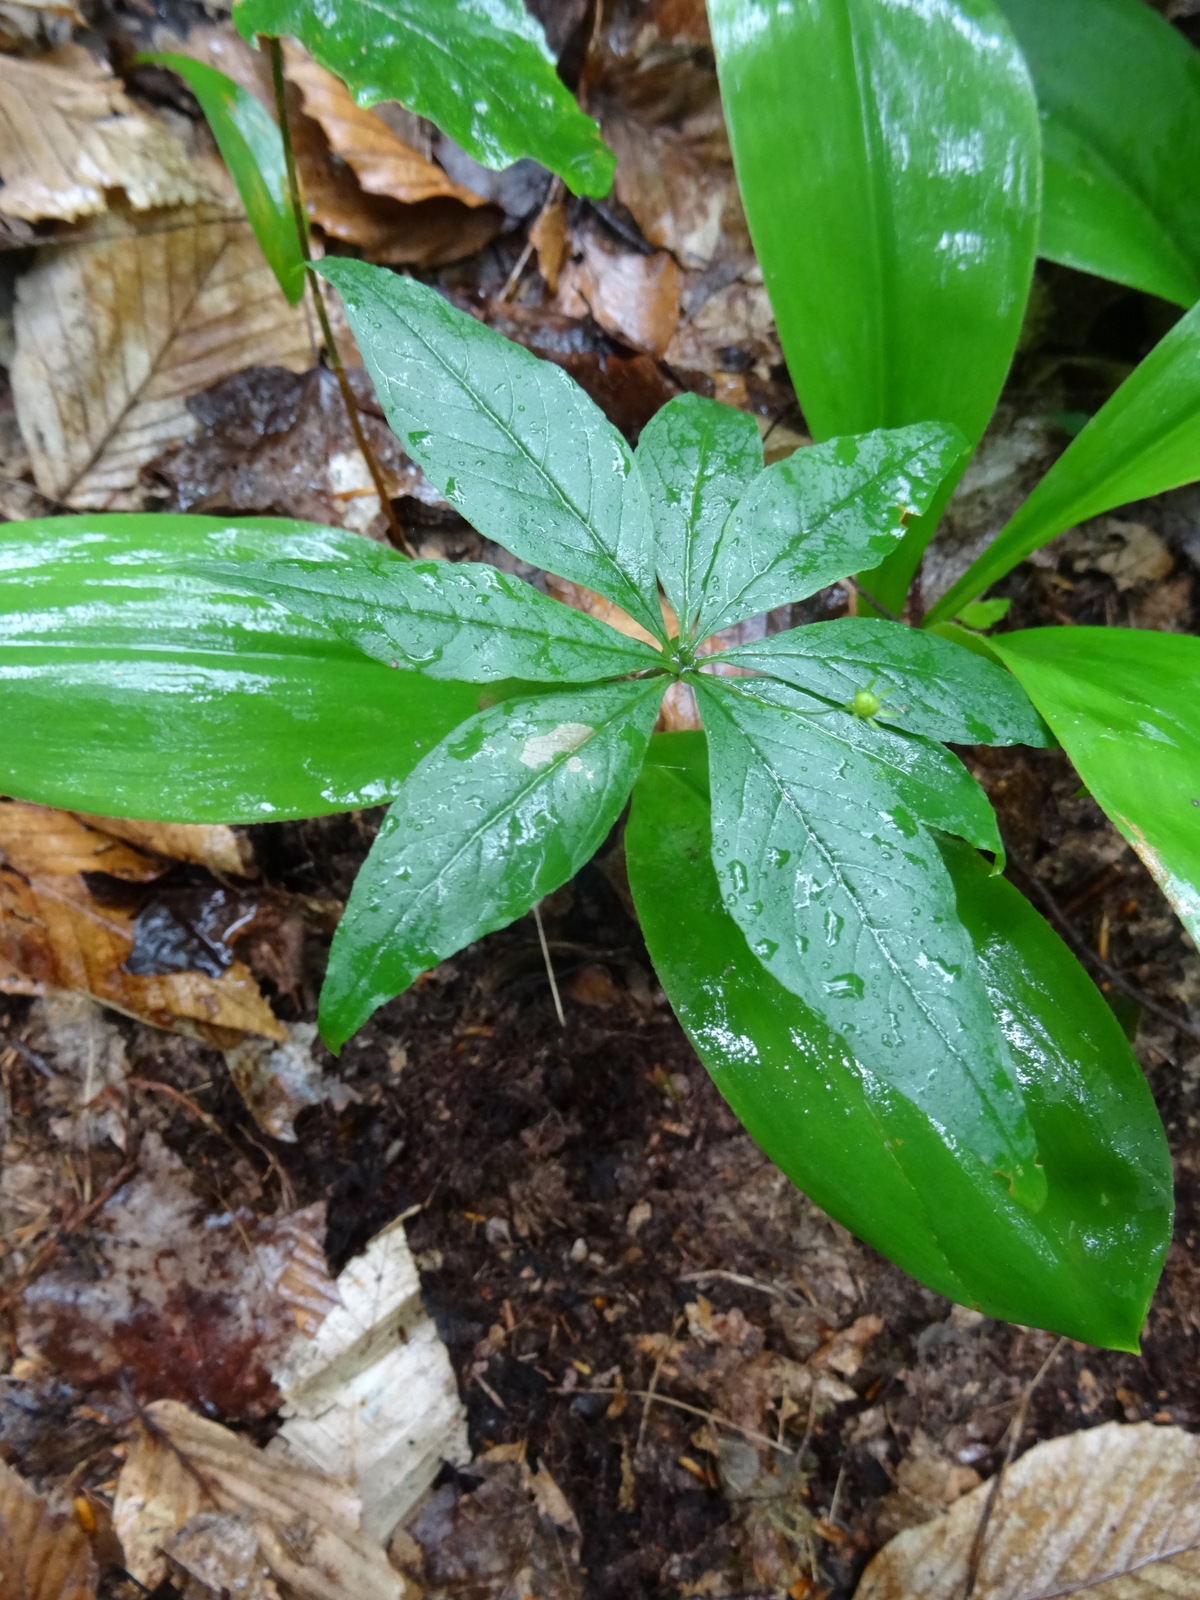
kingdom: Plantae
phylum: Tracheophyta
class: Magnoliopsida
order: Ericales
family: Primulaceae
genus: Lysimachia
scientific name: Lysimachia borealis
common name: American starflower
